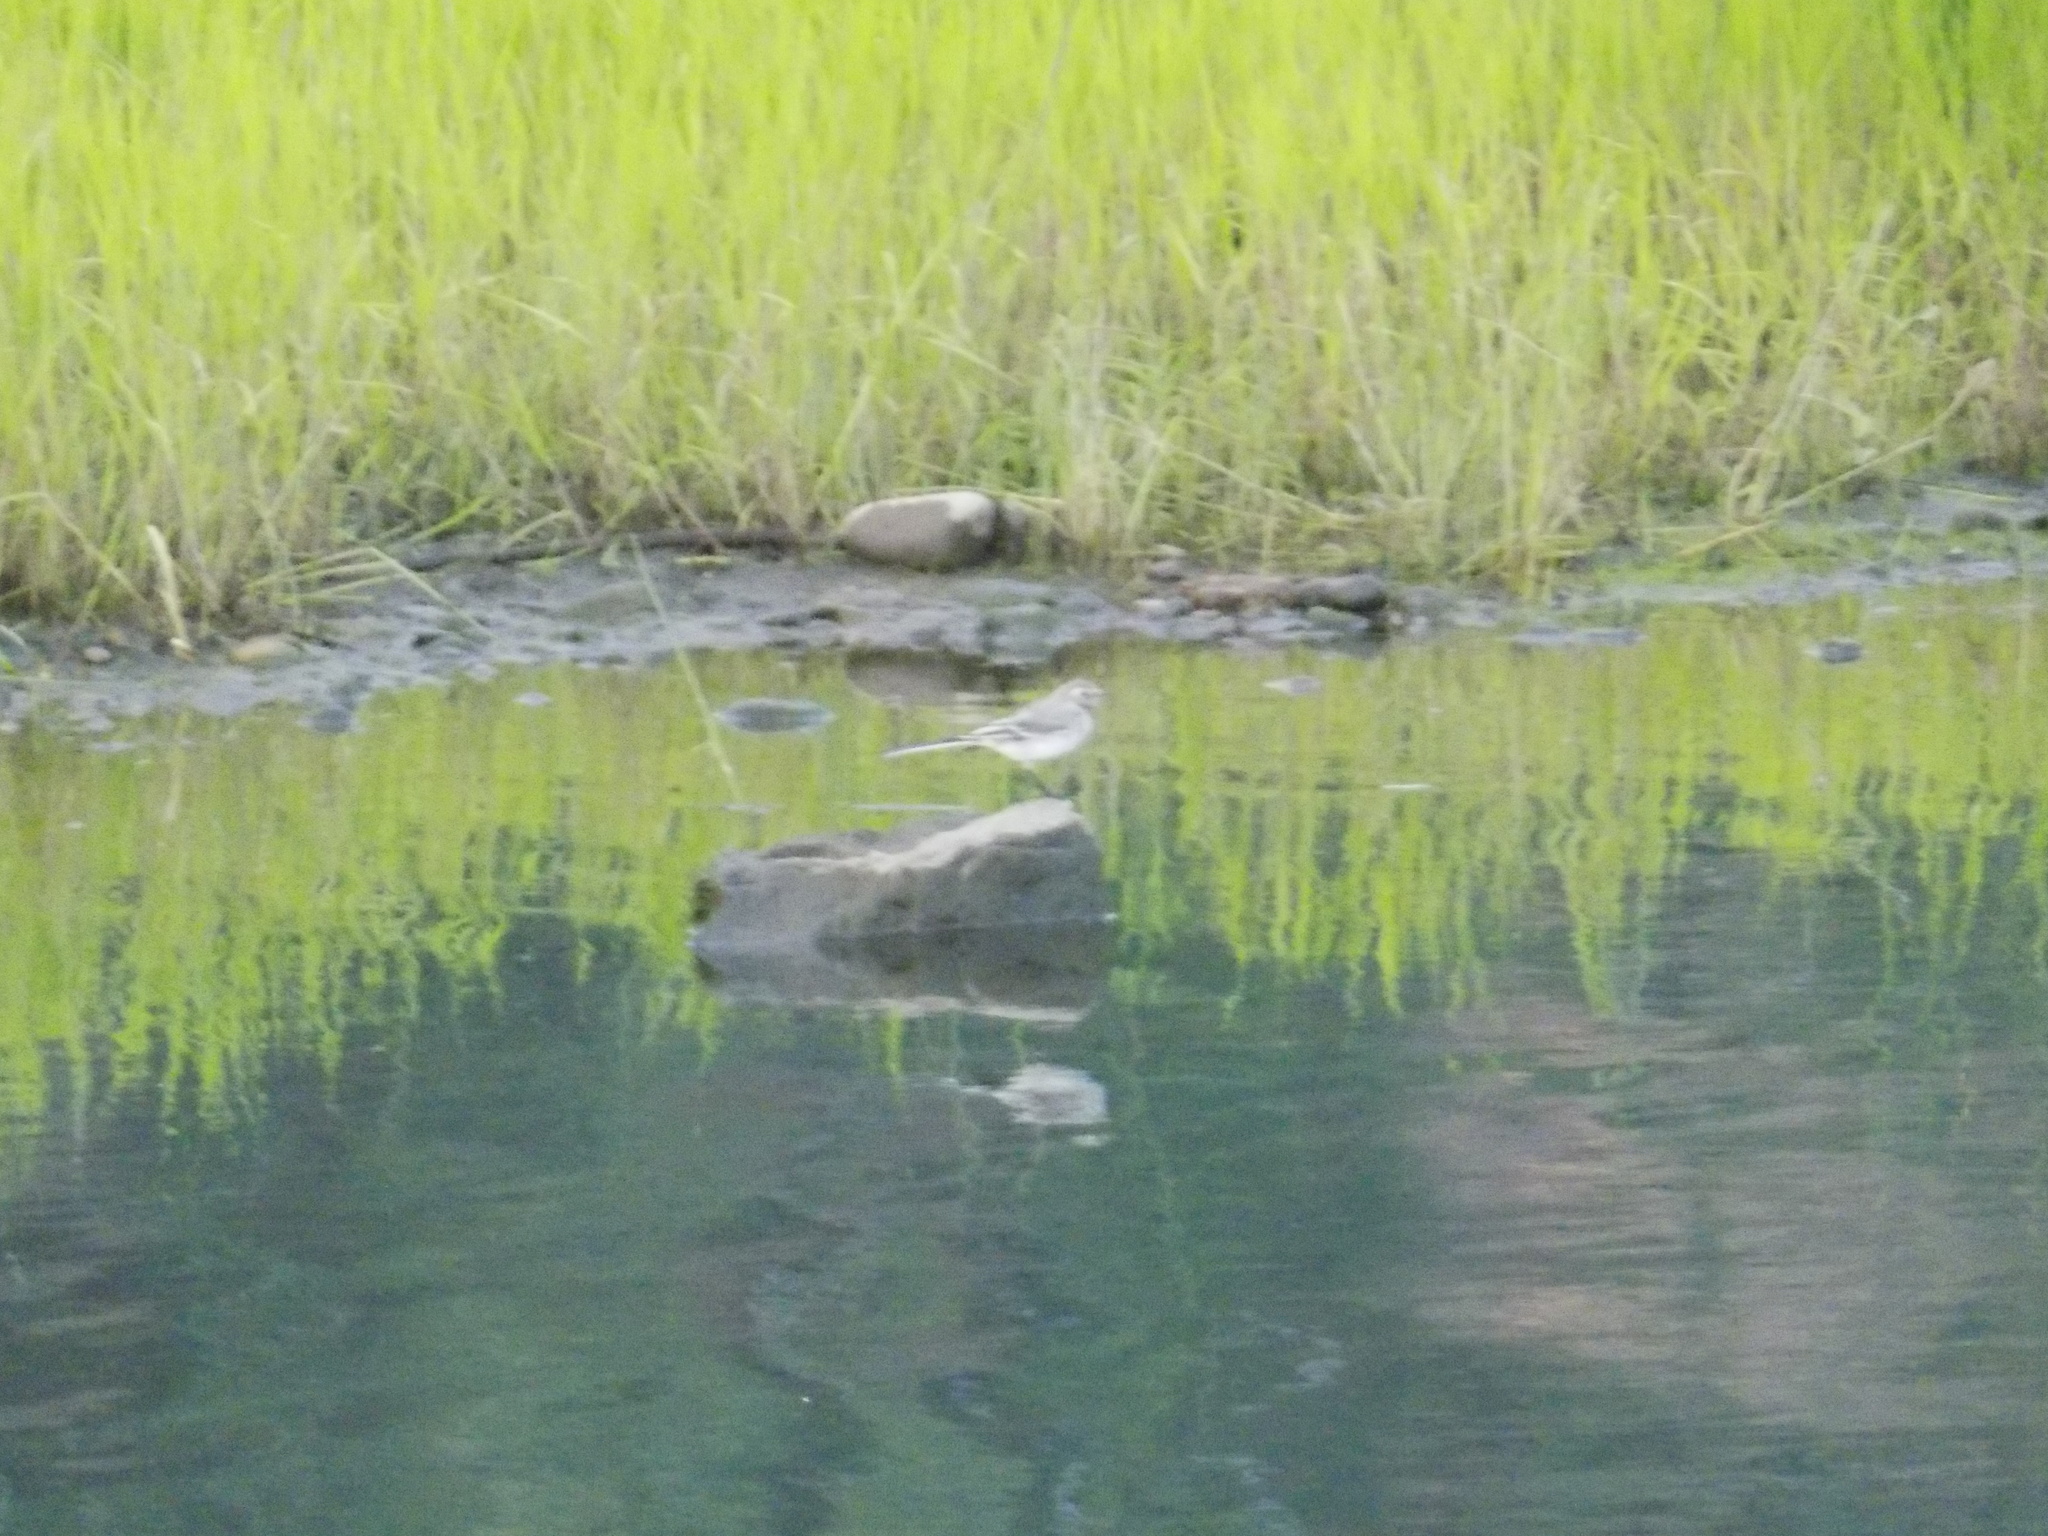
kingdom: Animalia
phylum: Chordata
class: Aves
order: Passeriformes
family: Motacillidae
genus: Motacilla
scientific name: Motacilla alba
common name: White wagtail
